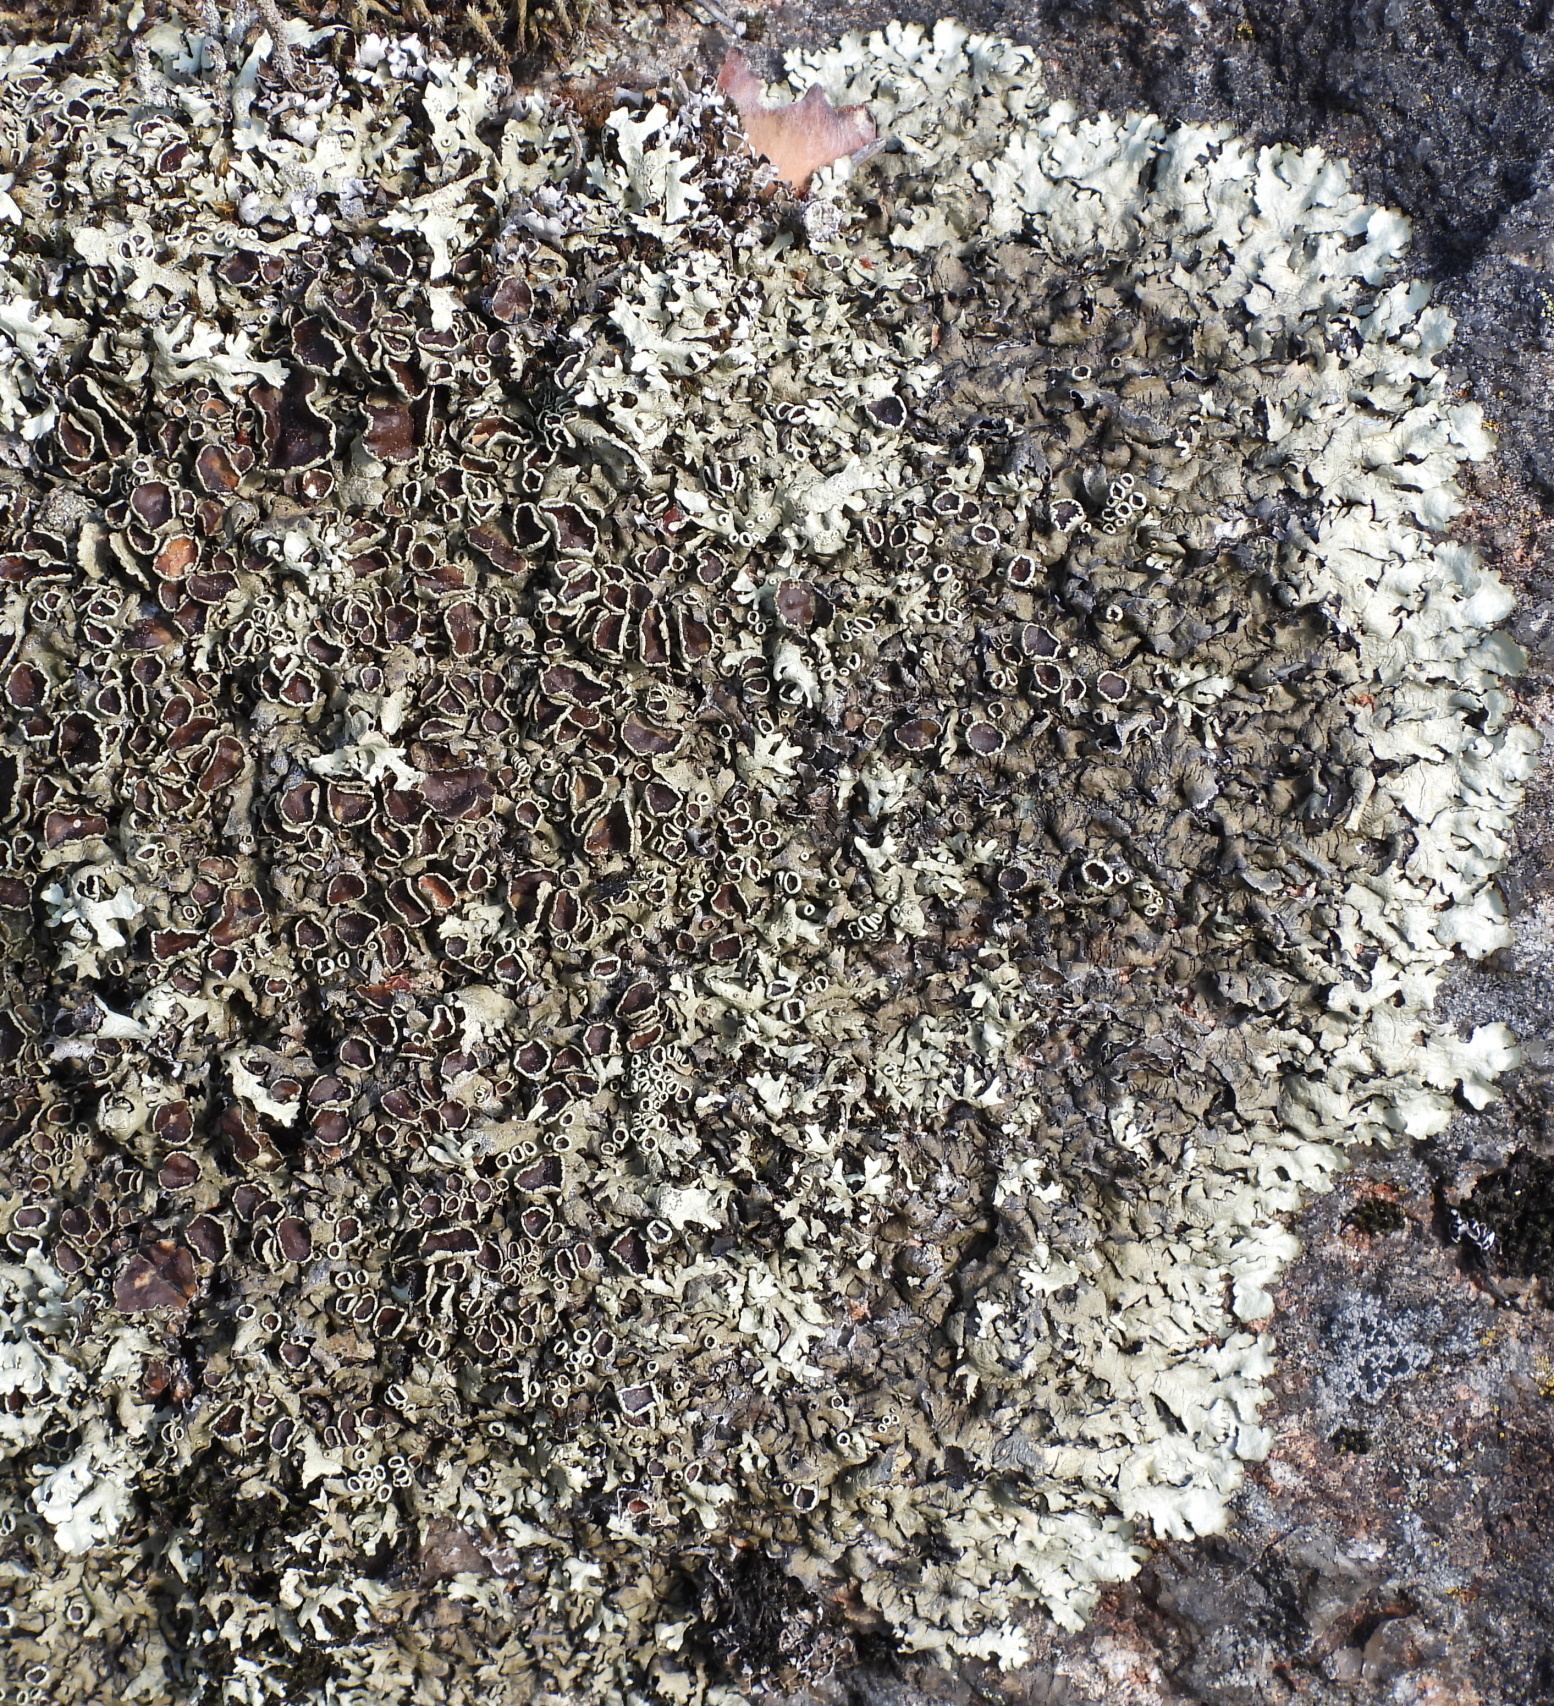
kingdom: Fungi
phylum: Ascomycota
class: Lecanoromycetes
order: Lecanorales
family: Parmeliaceae
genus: Xanthoparmelia
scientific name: Xanthoparmelia stenophylla
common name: Shingled rock shield
